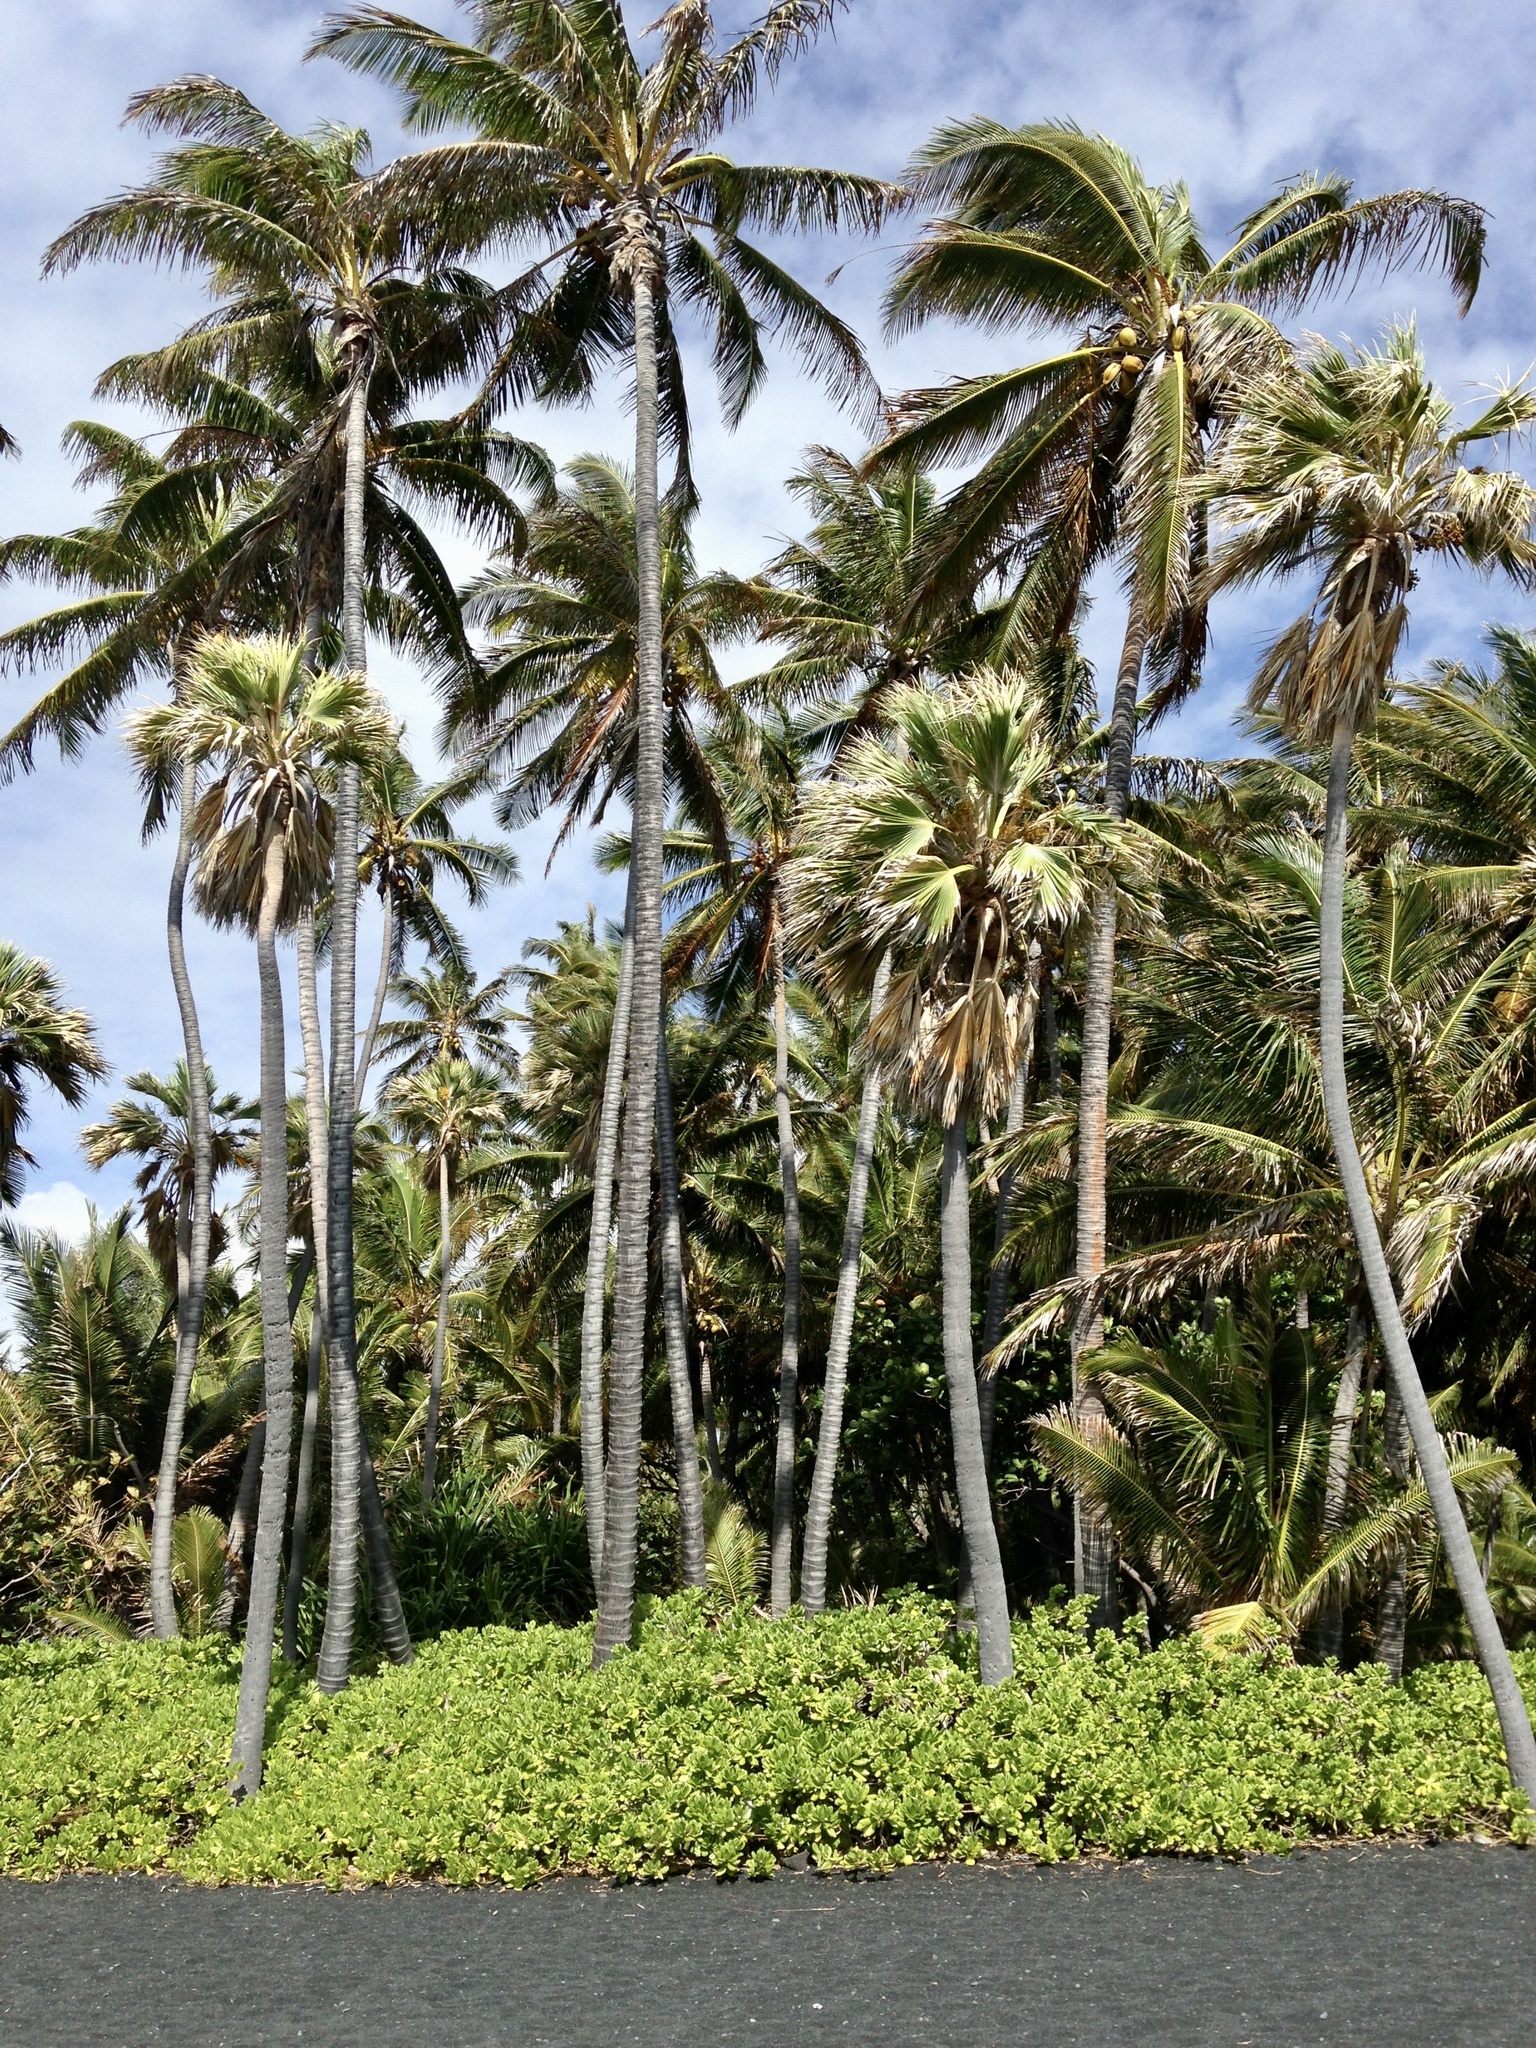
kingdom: Plantae
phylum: Tracheophyta
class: Liliopsida
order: Arecales
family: Arecaceae
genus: Cocos
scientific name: Cocos nucifera
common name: Coconut palm
